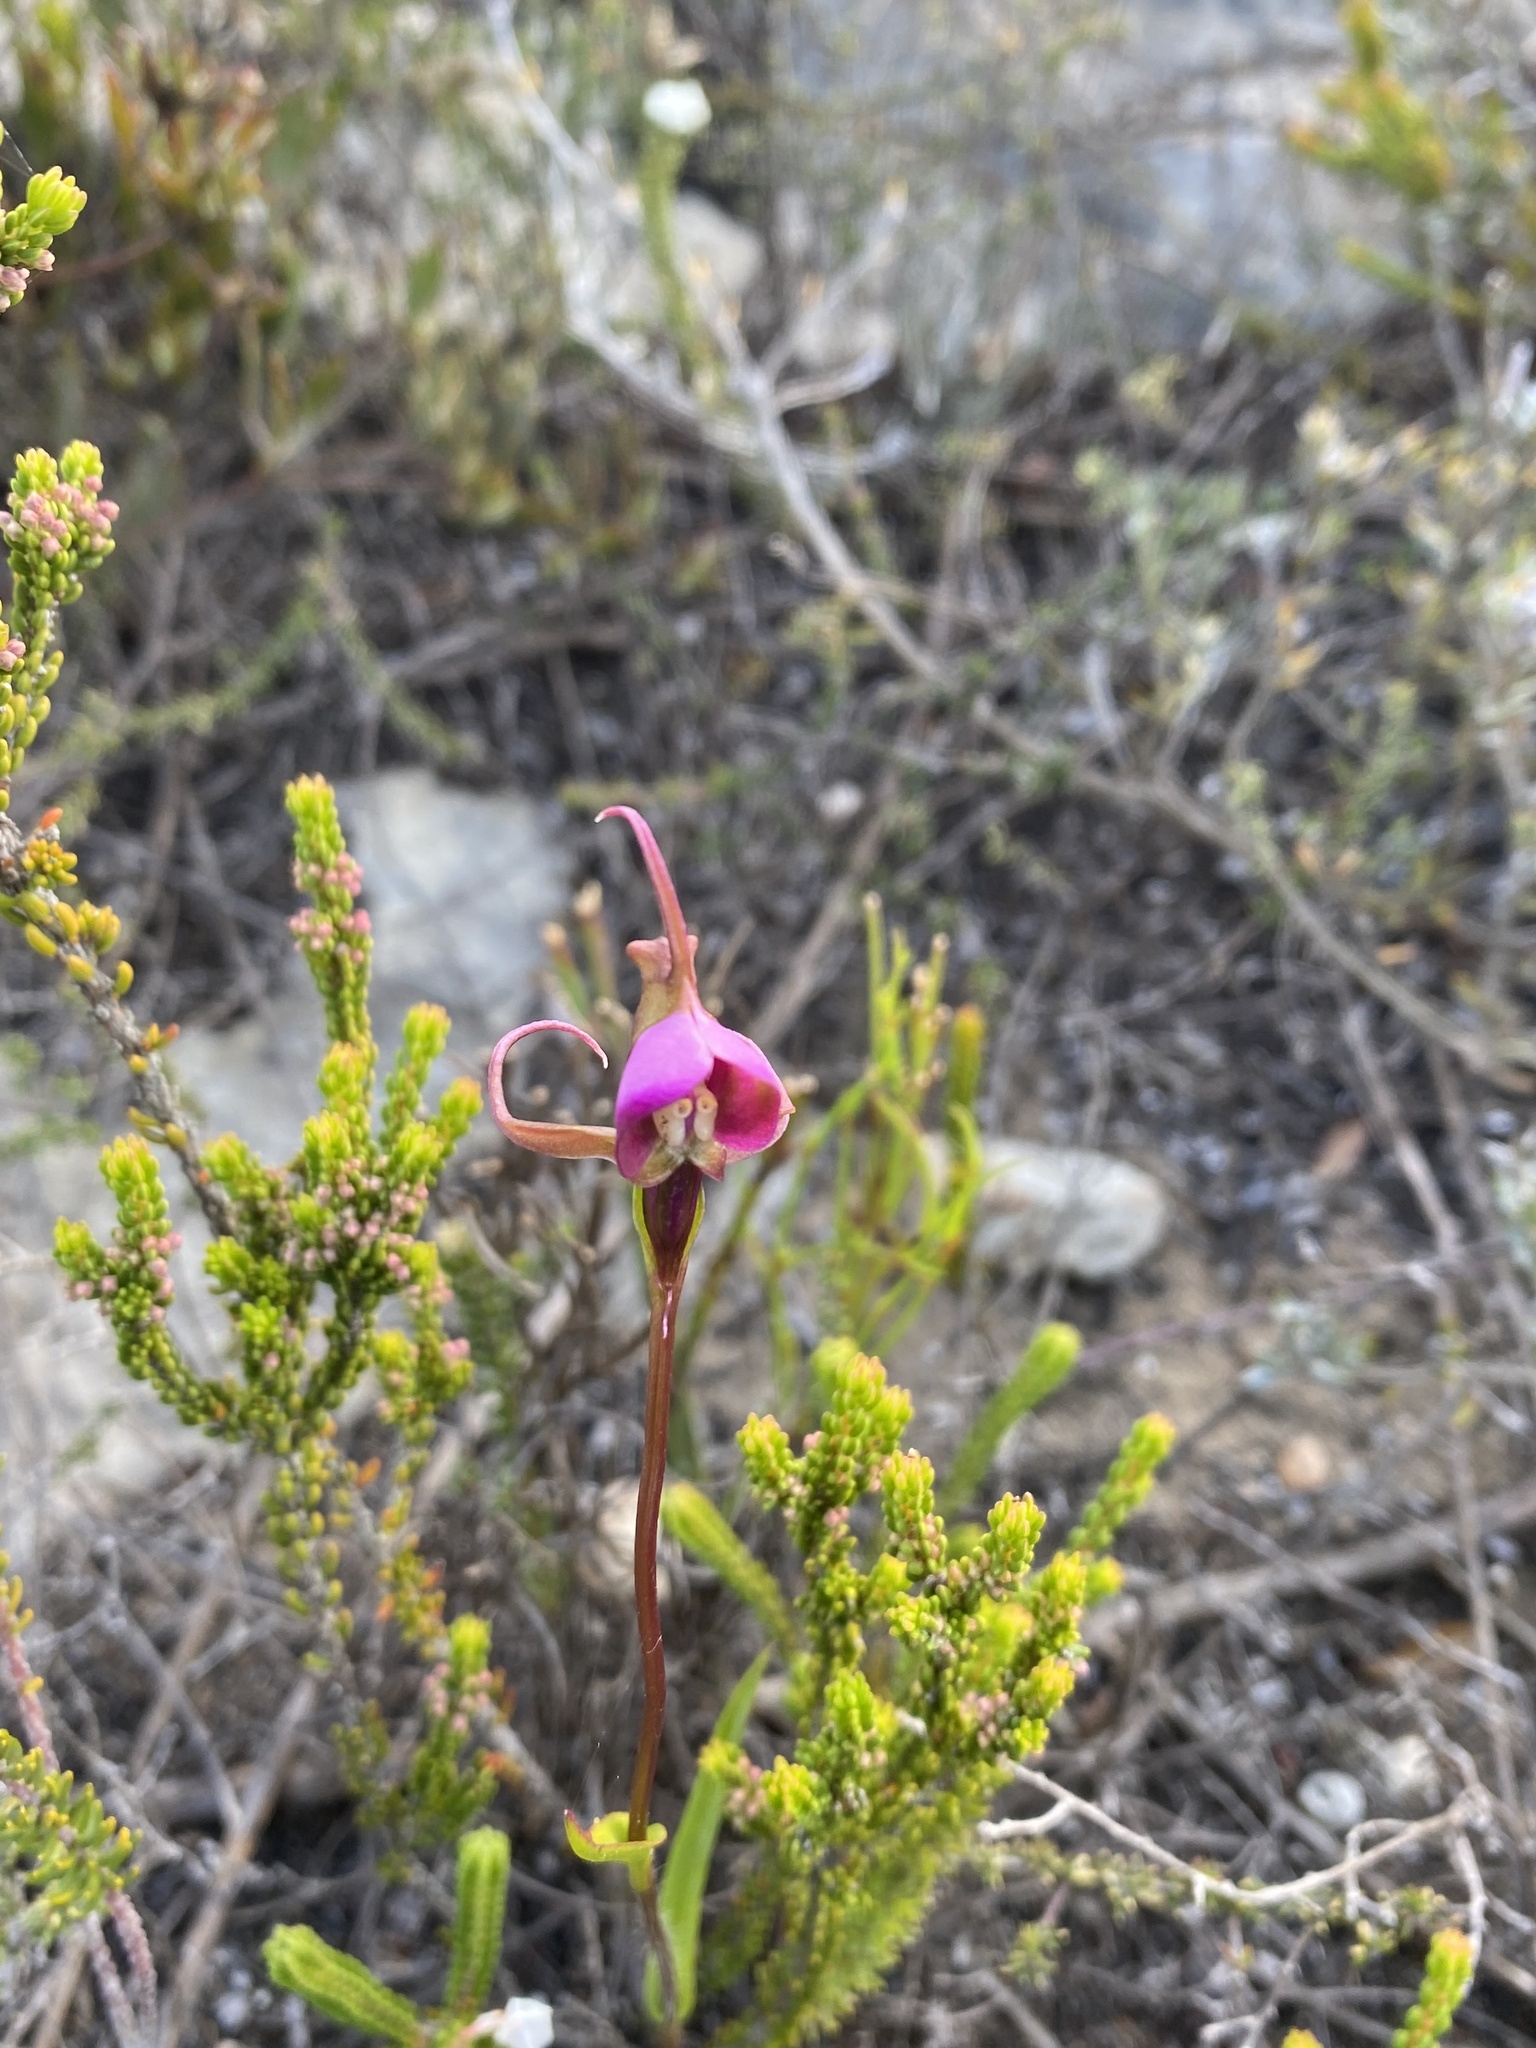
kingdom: Plantae
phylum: Tracheophyta
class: Liliopsida
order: Asparagales
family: Orchidaceae
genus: Disperis
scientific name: Disperis capensis
